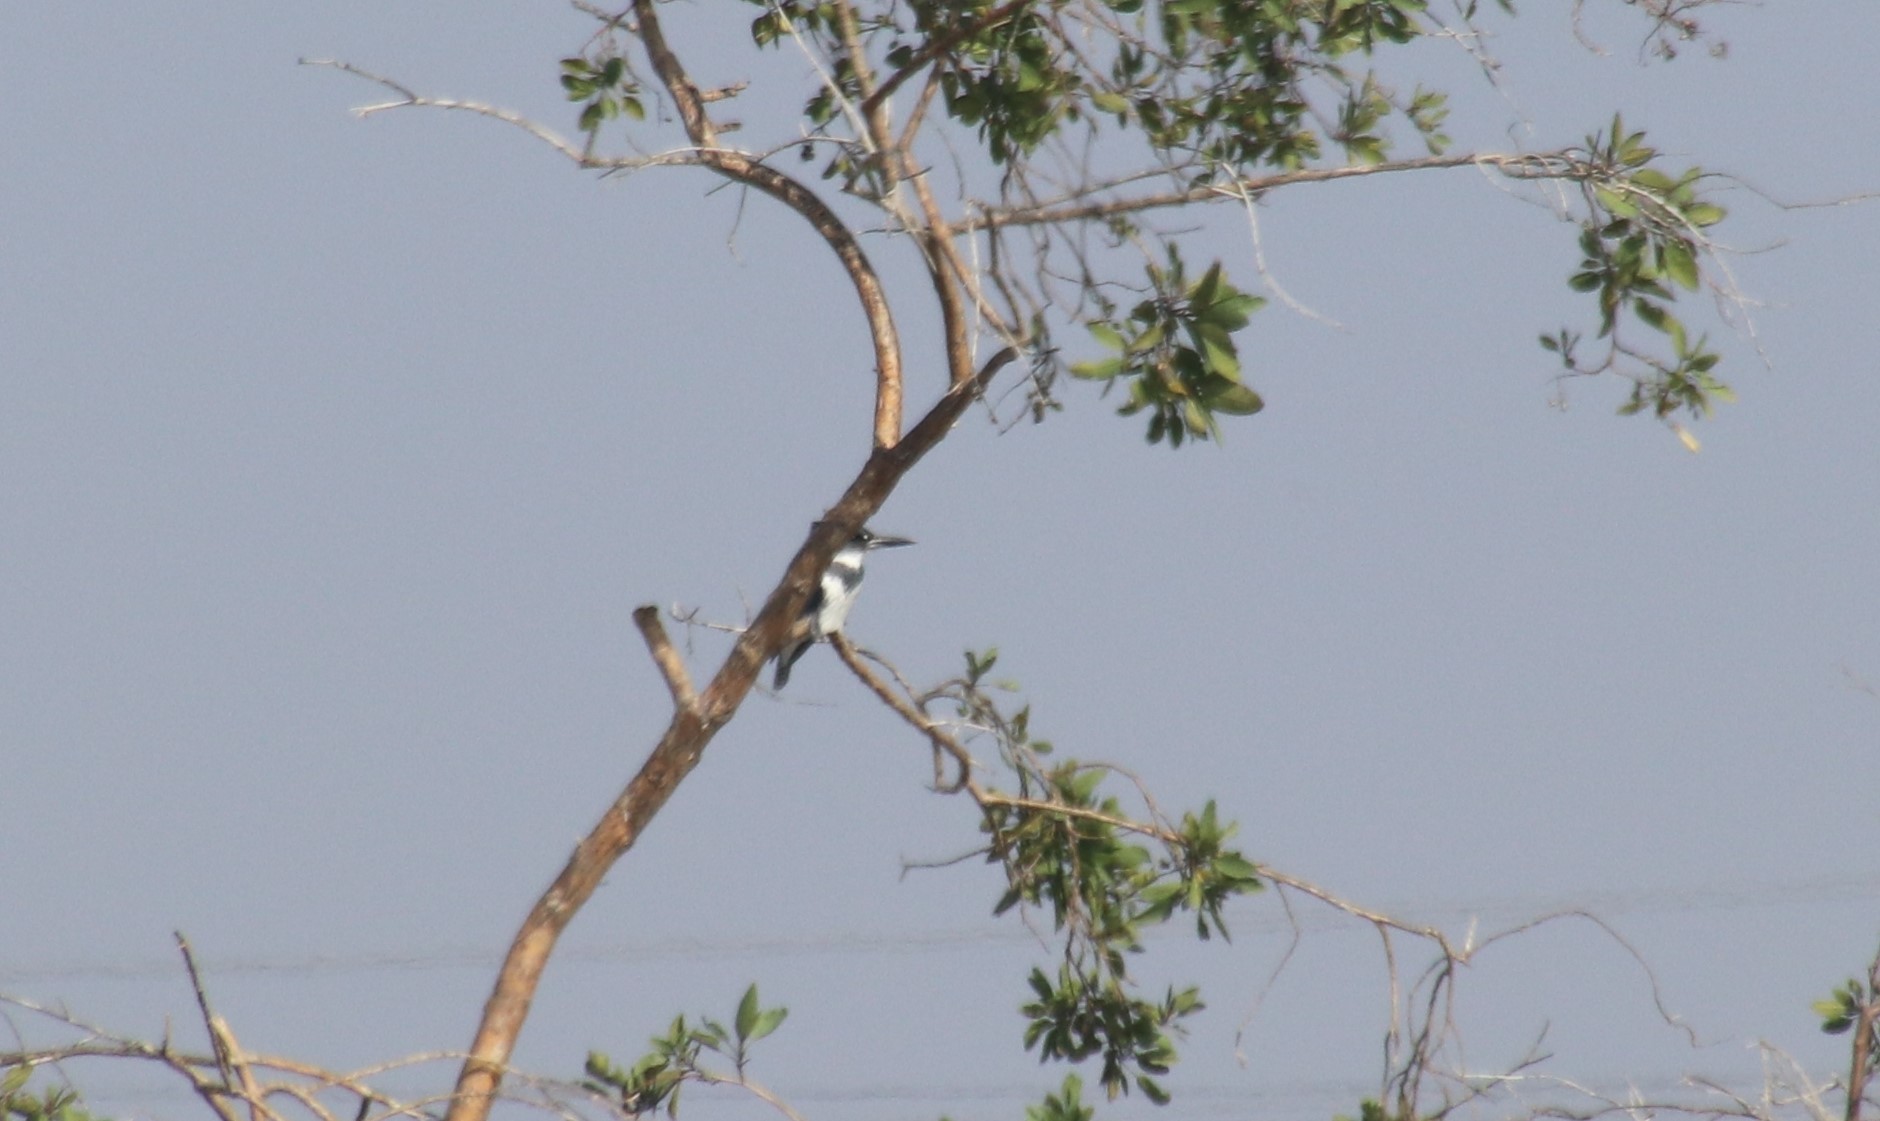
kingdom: Animalia
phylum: Chordata
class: Aves
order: Coraciiformes
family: Alcedinidae
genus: Megaceryle
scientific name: Megaceryle alcyon
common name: Belted kingfisher
